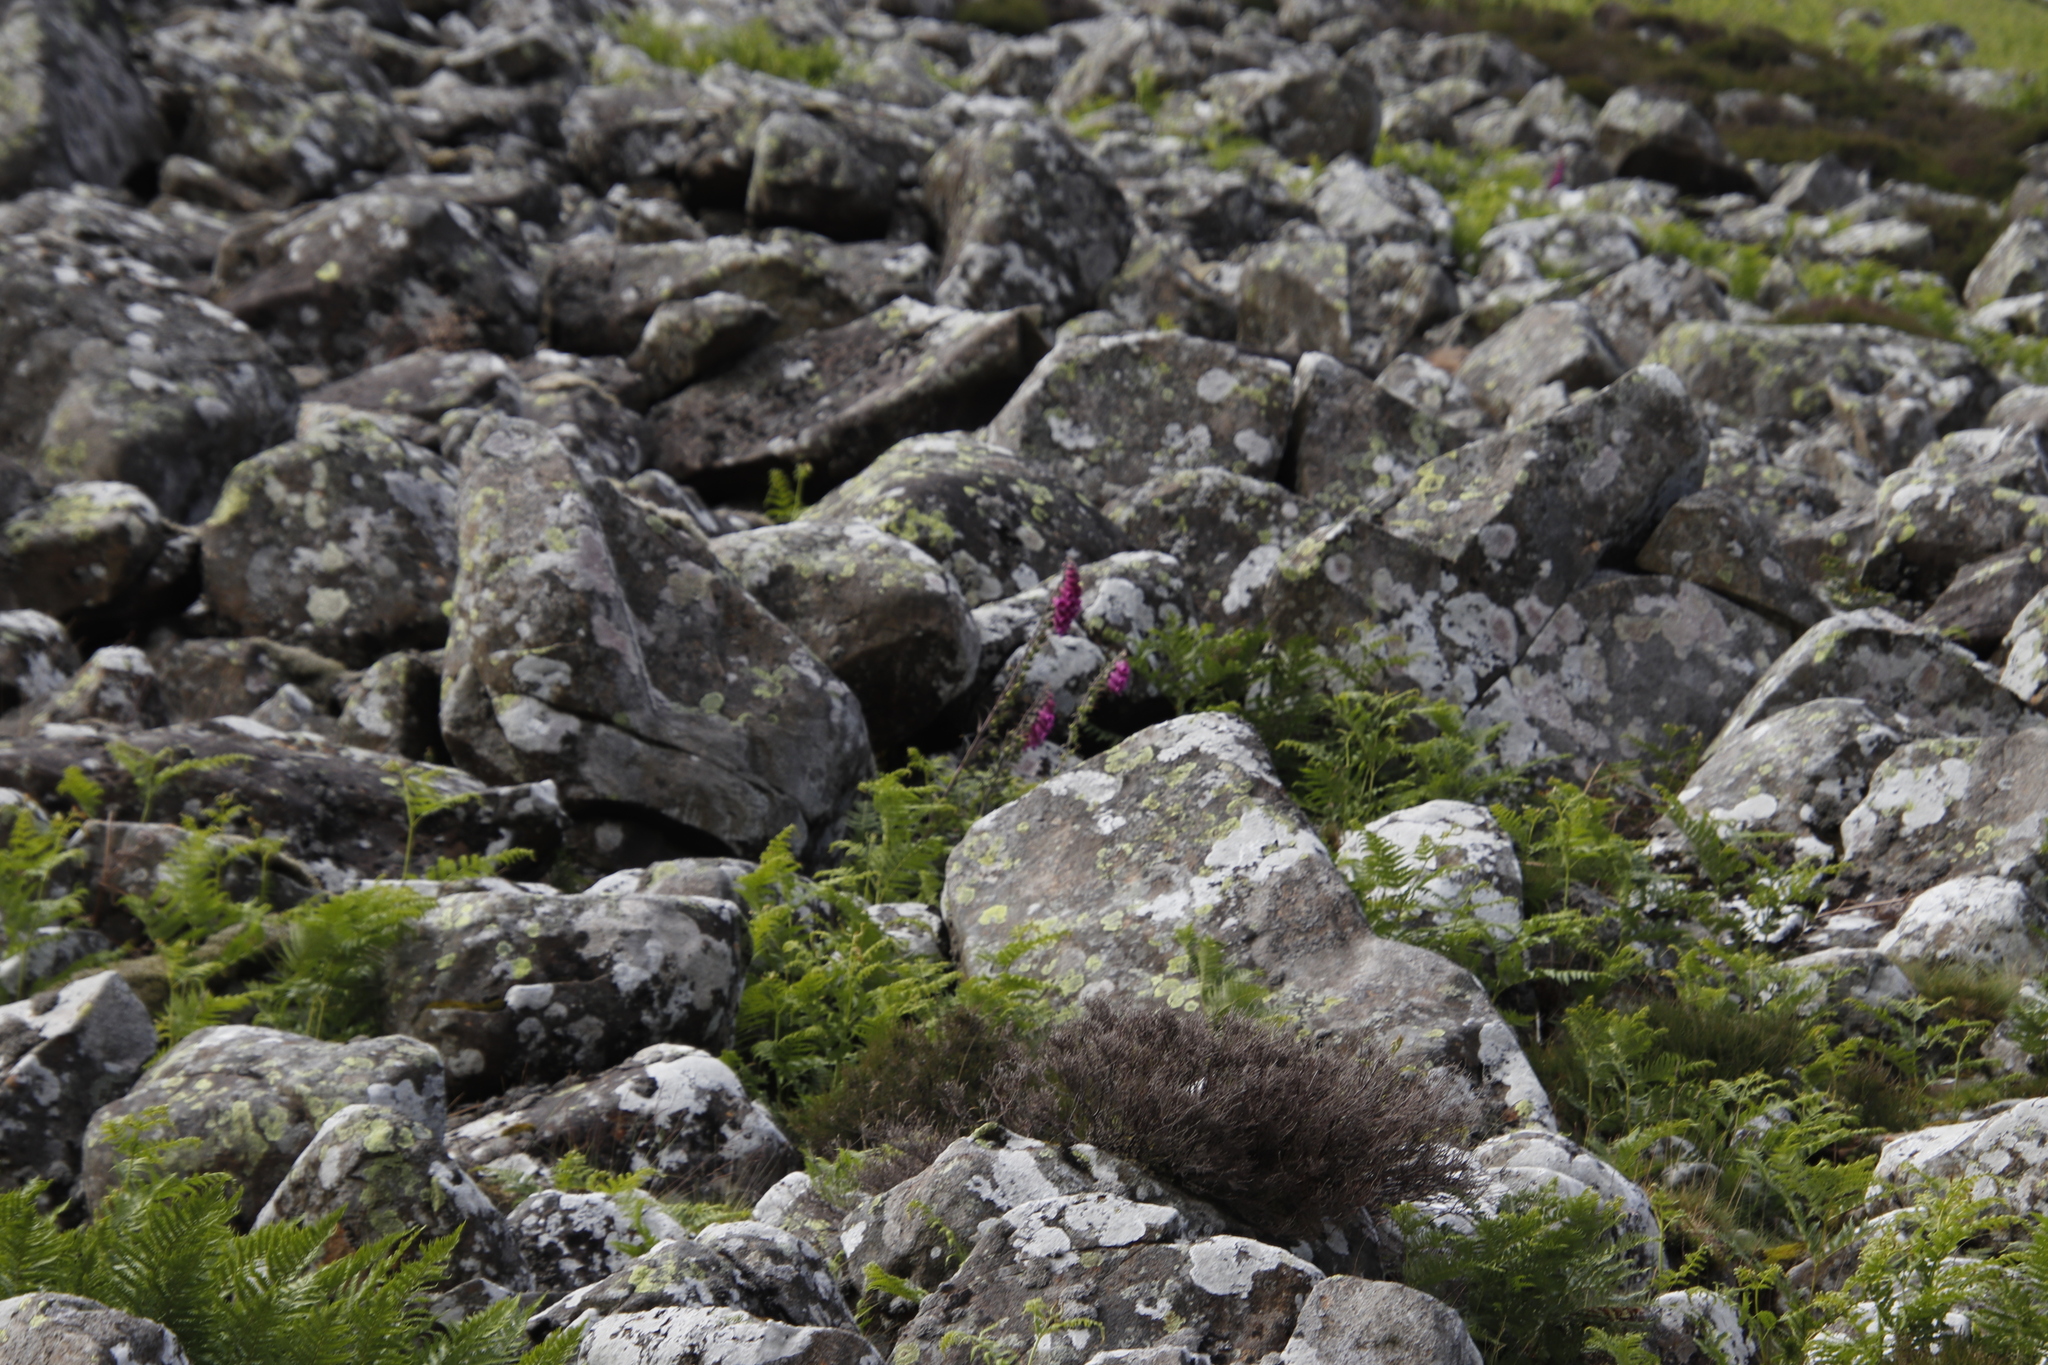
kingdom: Plantae
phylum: Tracheophyta
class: Magnoliopsida
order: Lamiales
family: Plantaginaceae
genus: Digitalis
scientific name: Digitalis purpurea
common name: Foxglove
